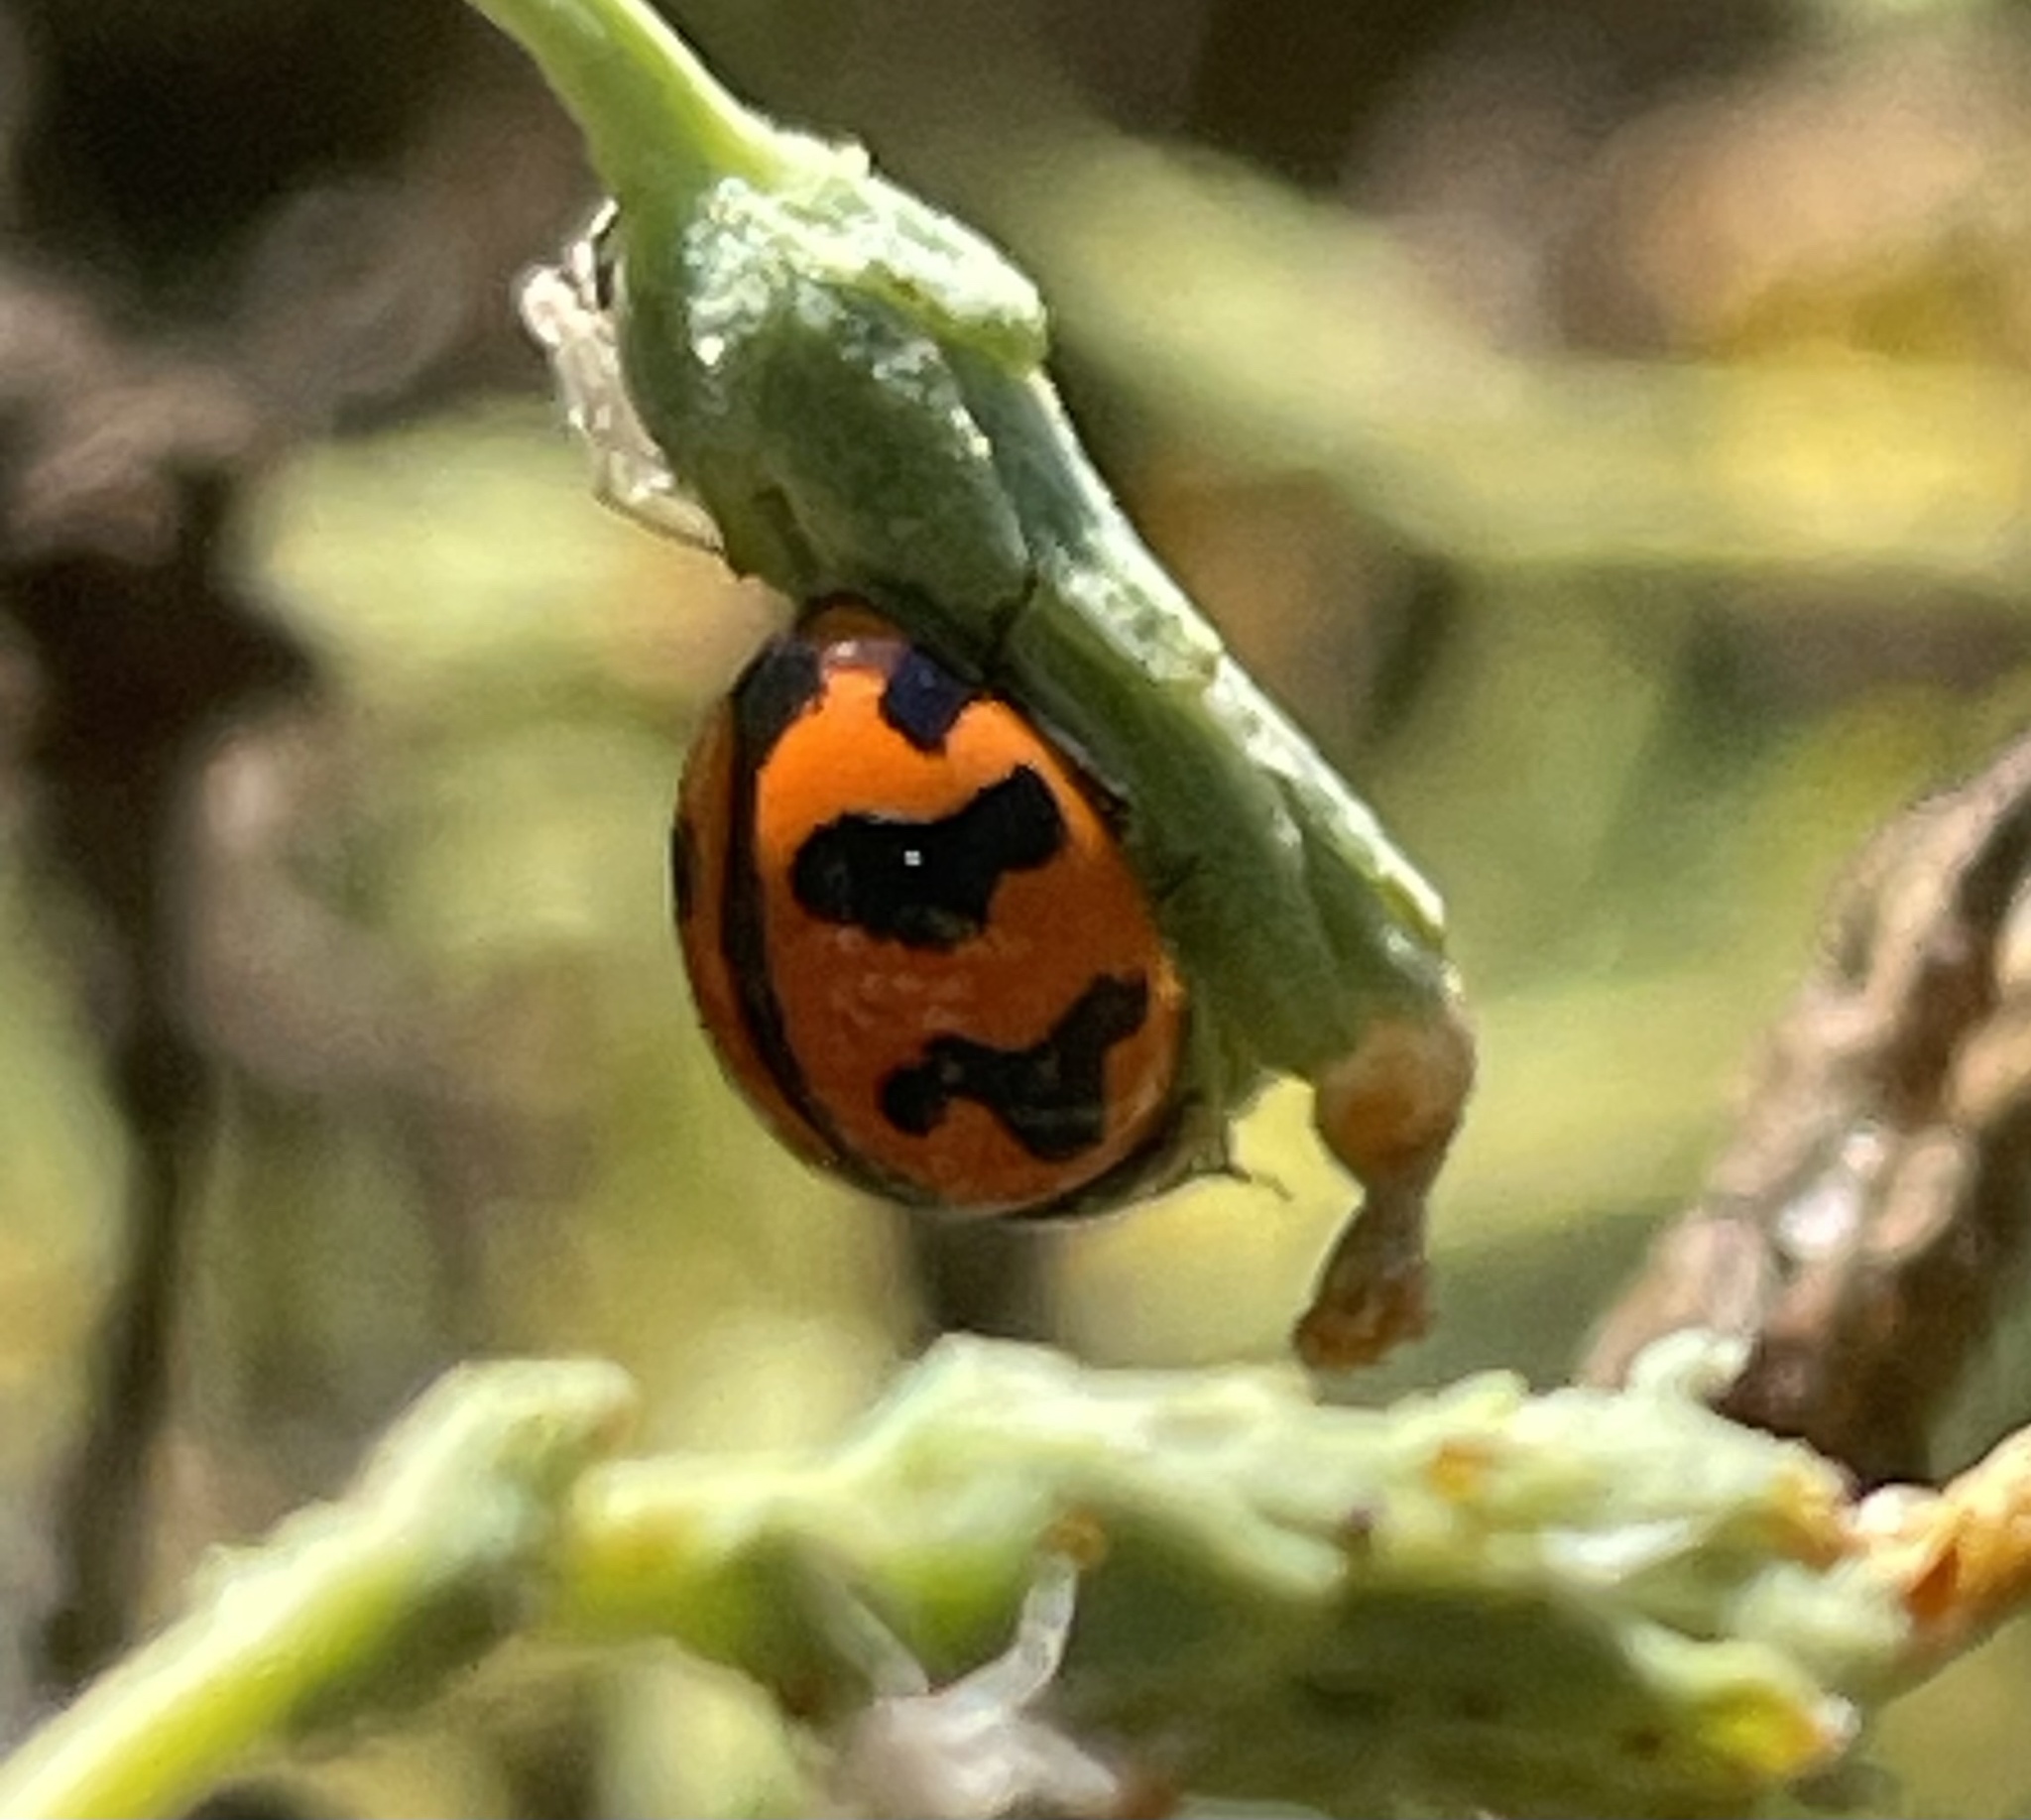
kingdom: Animalia
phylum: Arthropoda
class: Insecta
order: Coleoptera
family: Coccinellidae
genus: Coccinella
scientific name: Coccinella transversalis
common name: Transverse lady beetle
